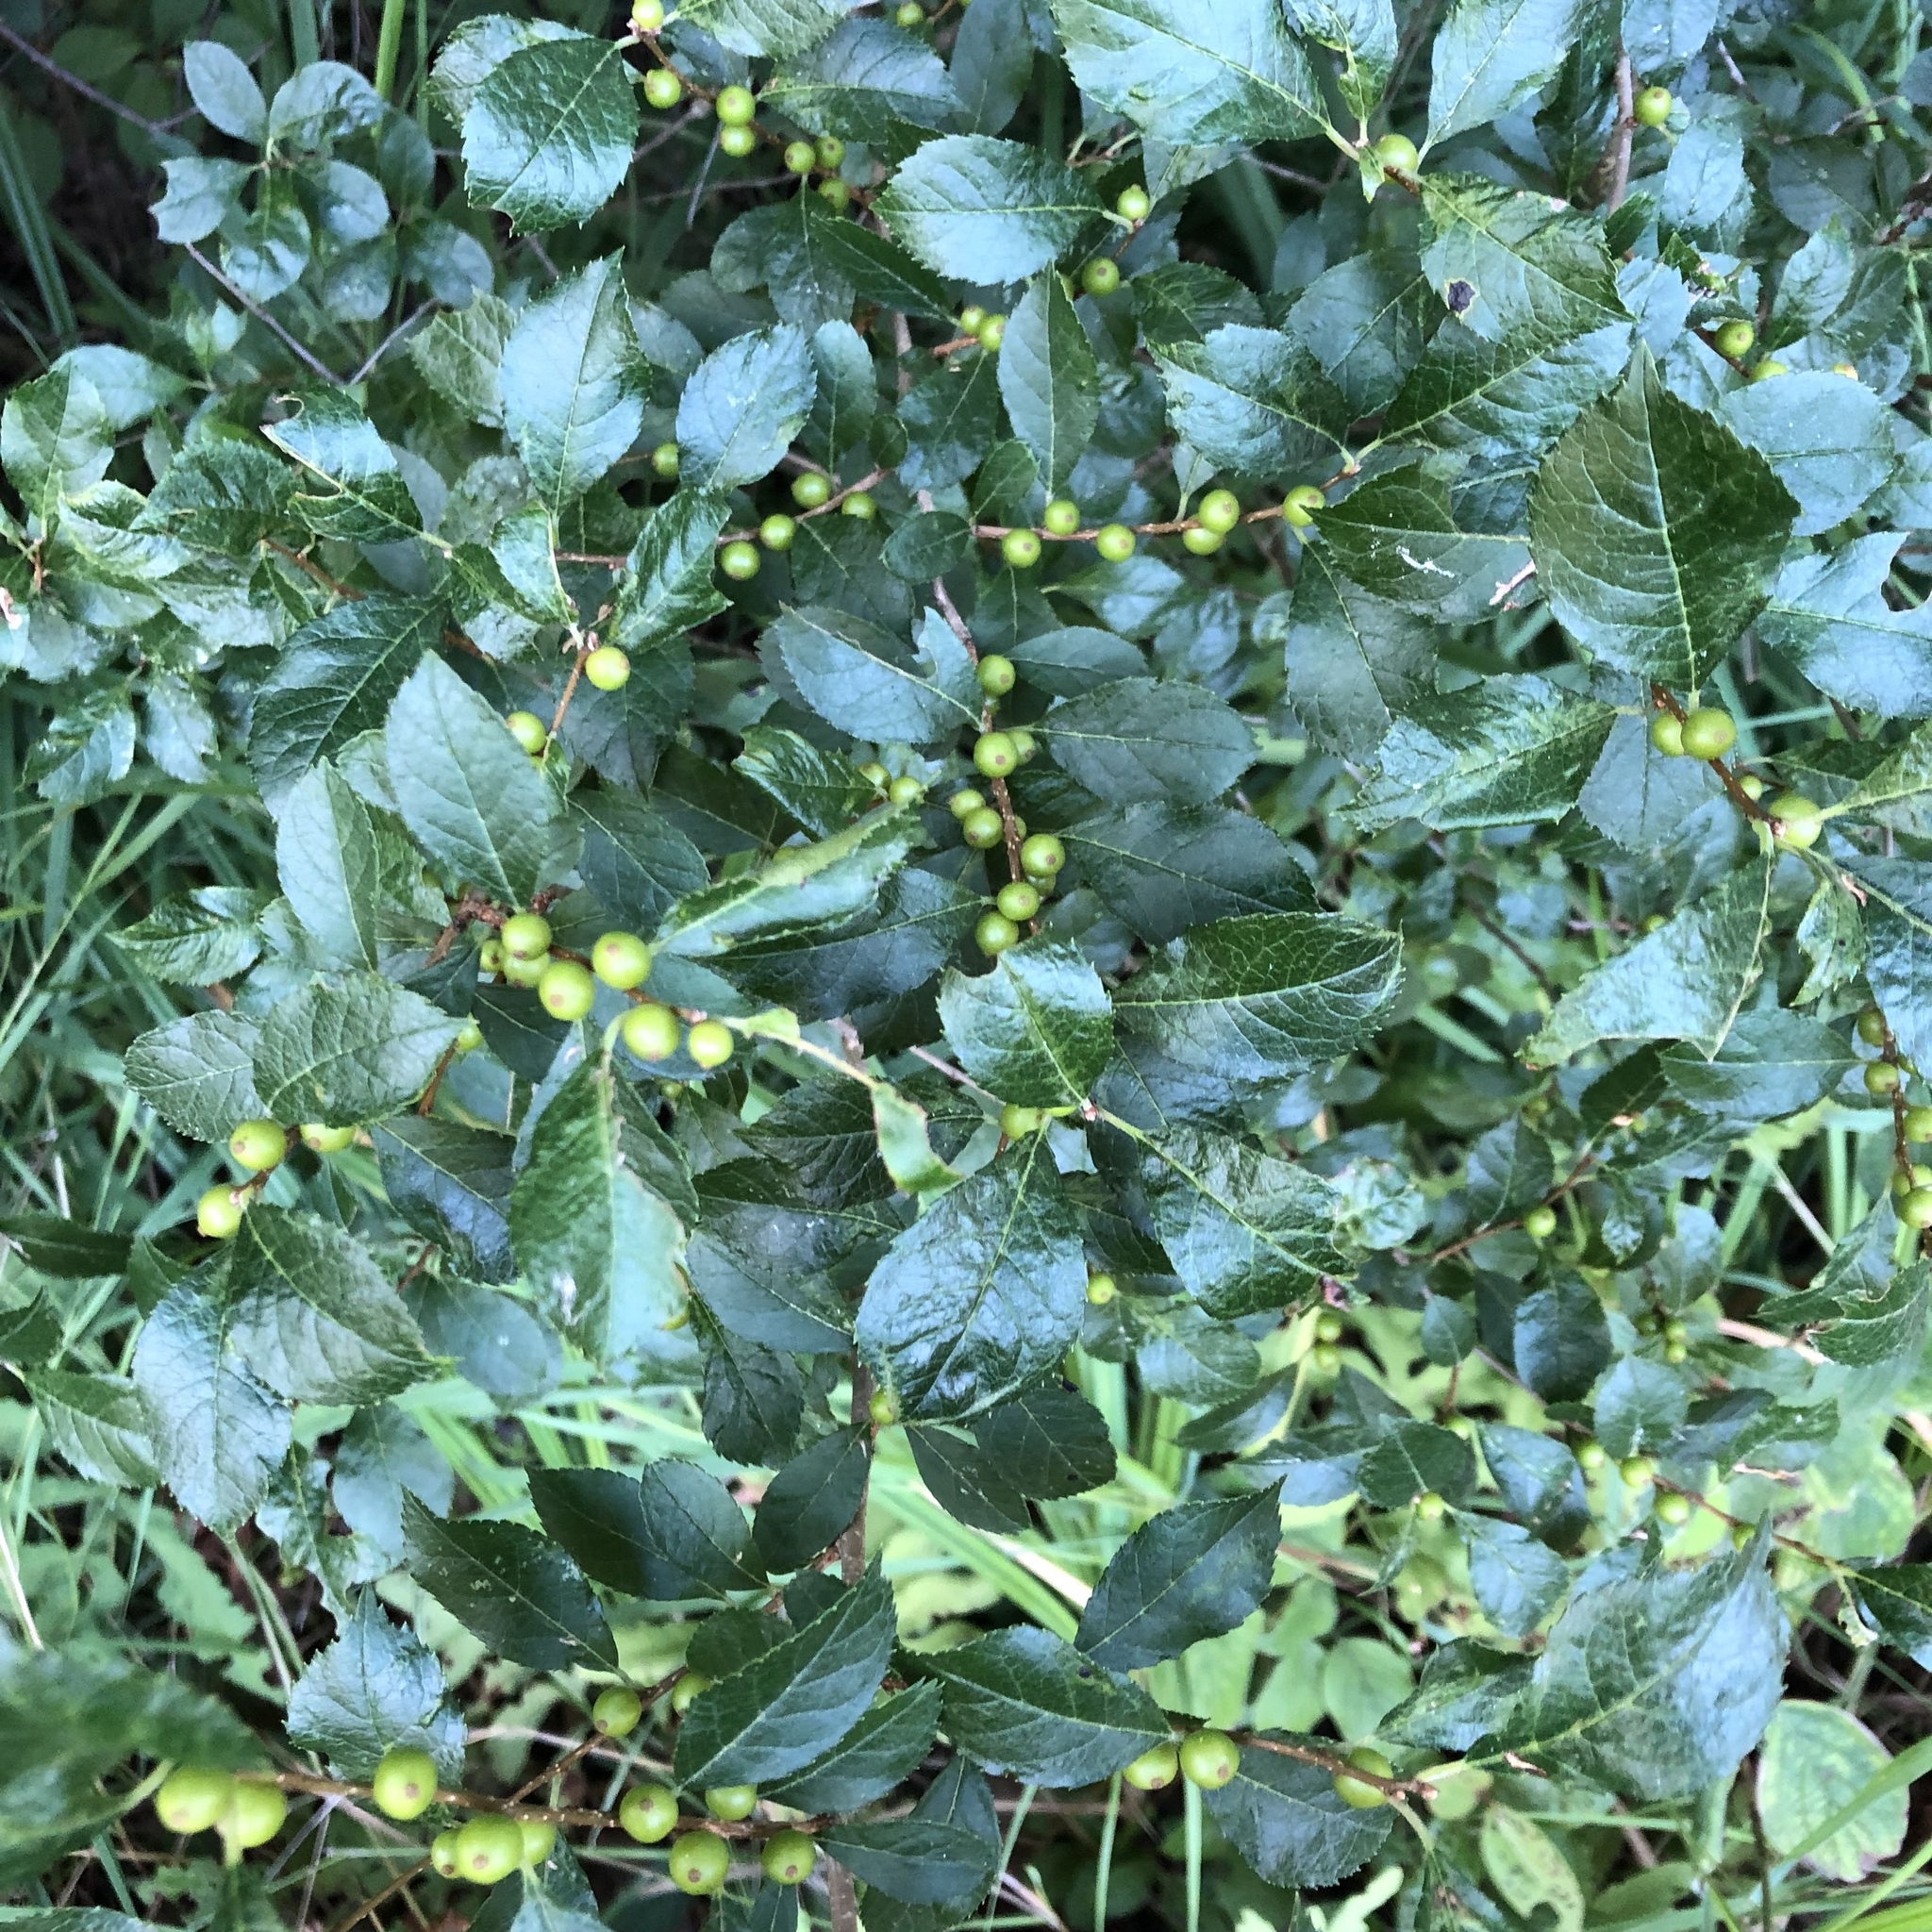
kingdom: Plantae
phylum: Tracheophyta
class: Magnoliopsida
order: Aquifoliales
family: Aquifoliaceae
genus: Ilex
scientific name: Ilex verticillata
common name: Virginia winterberry
